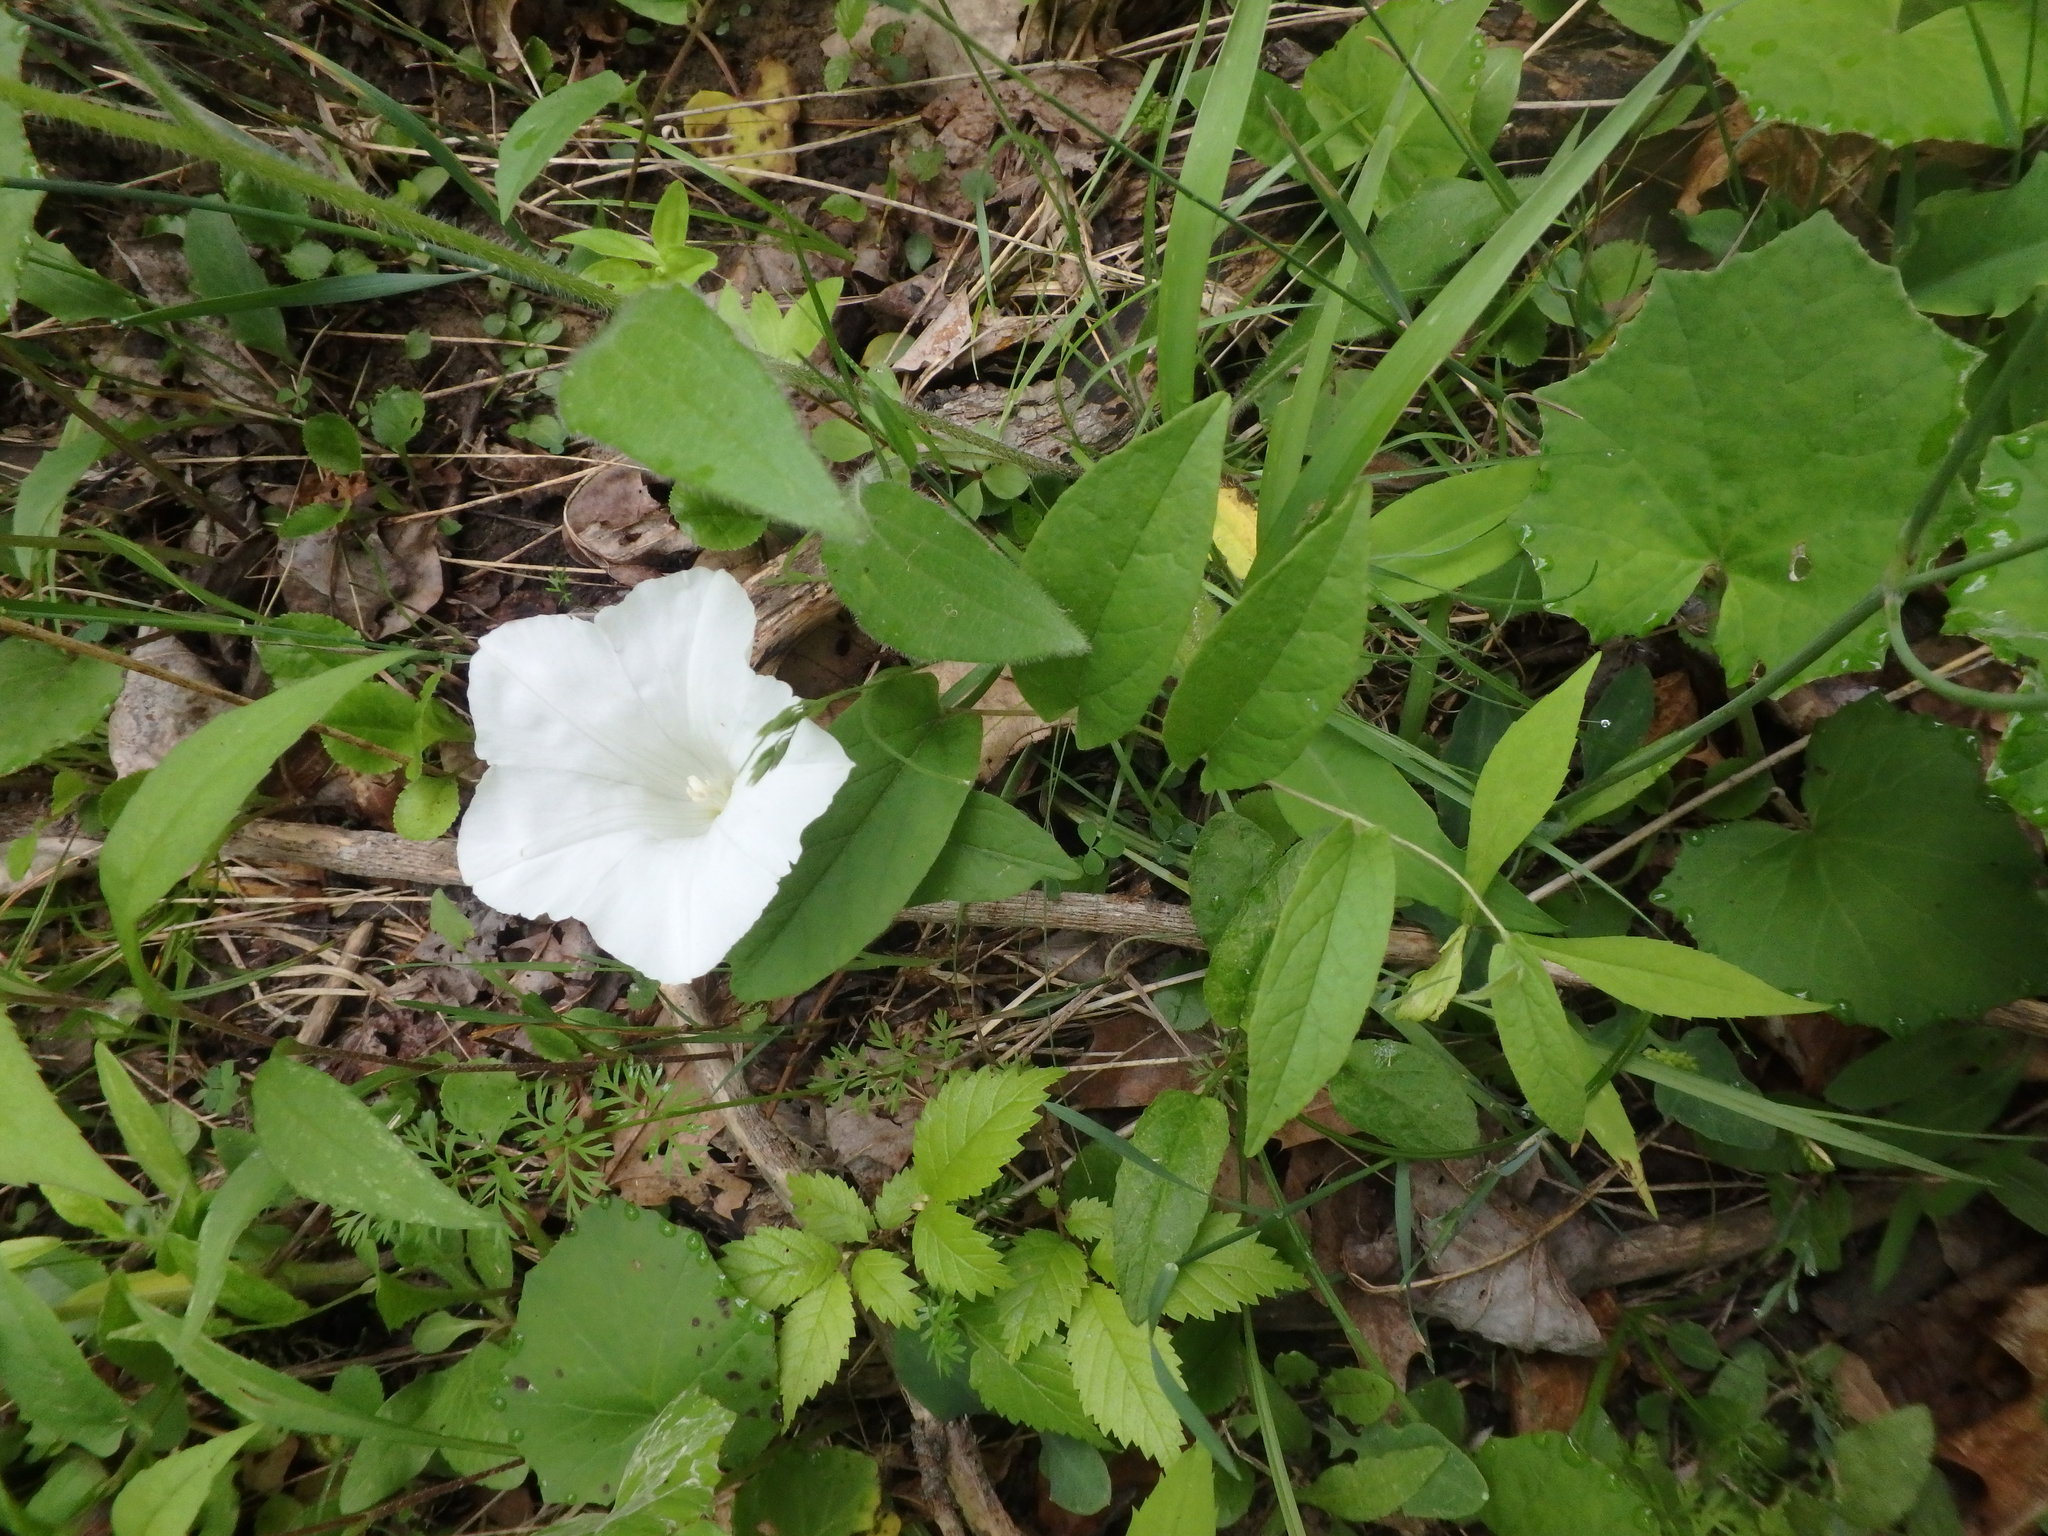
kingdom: Plantae
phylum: Tracheophyta
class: Magnoliopsida
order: Solanales
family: Convolvulaceae
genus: Calystegia
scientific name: Calystegia spithamaea
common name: Dwarf bindweed
